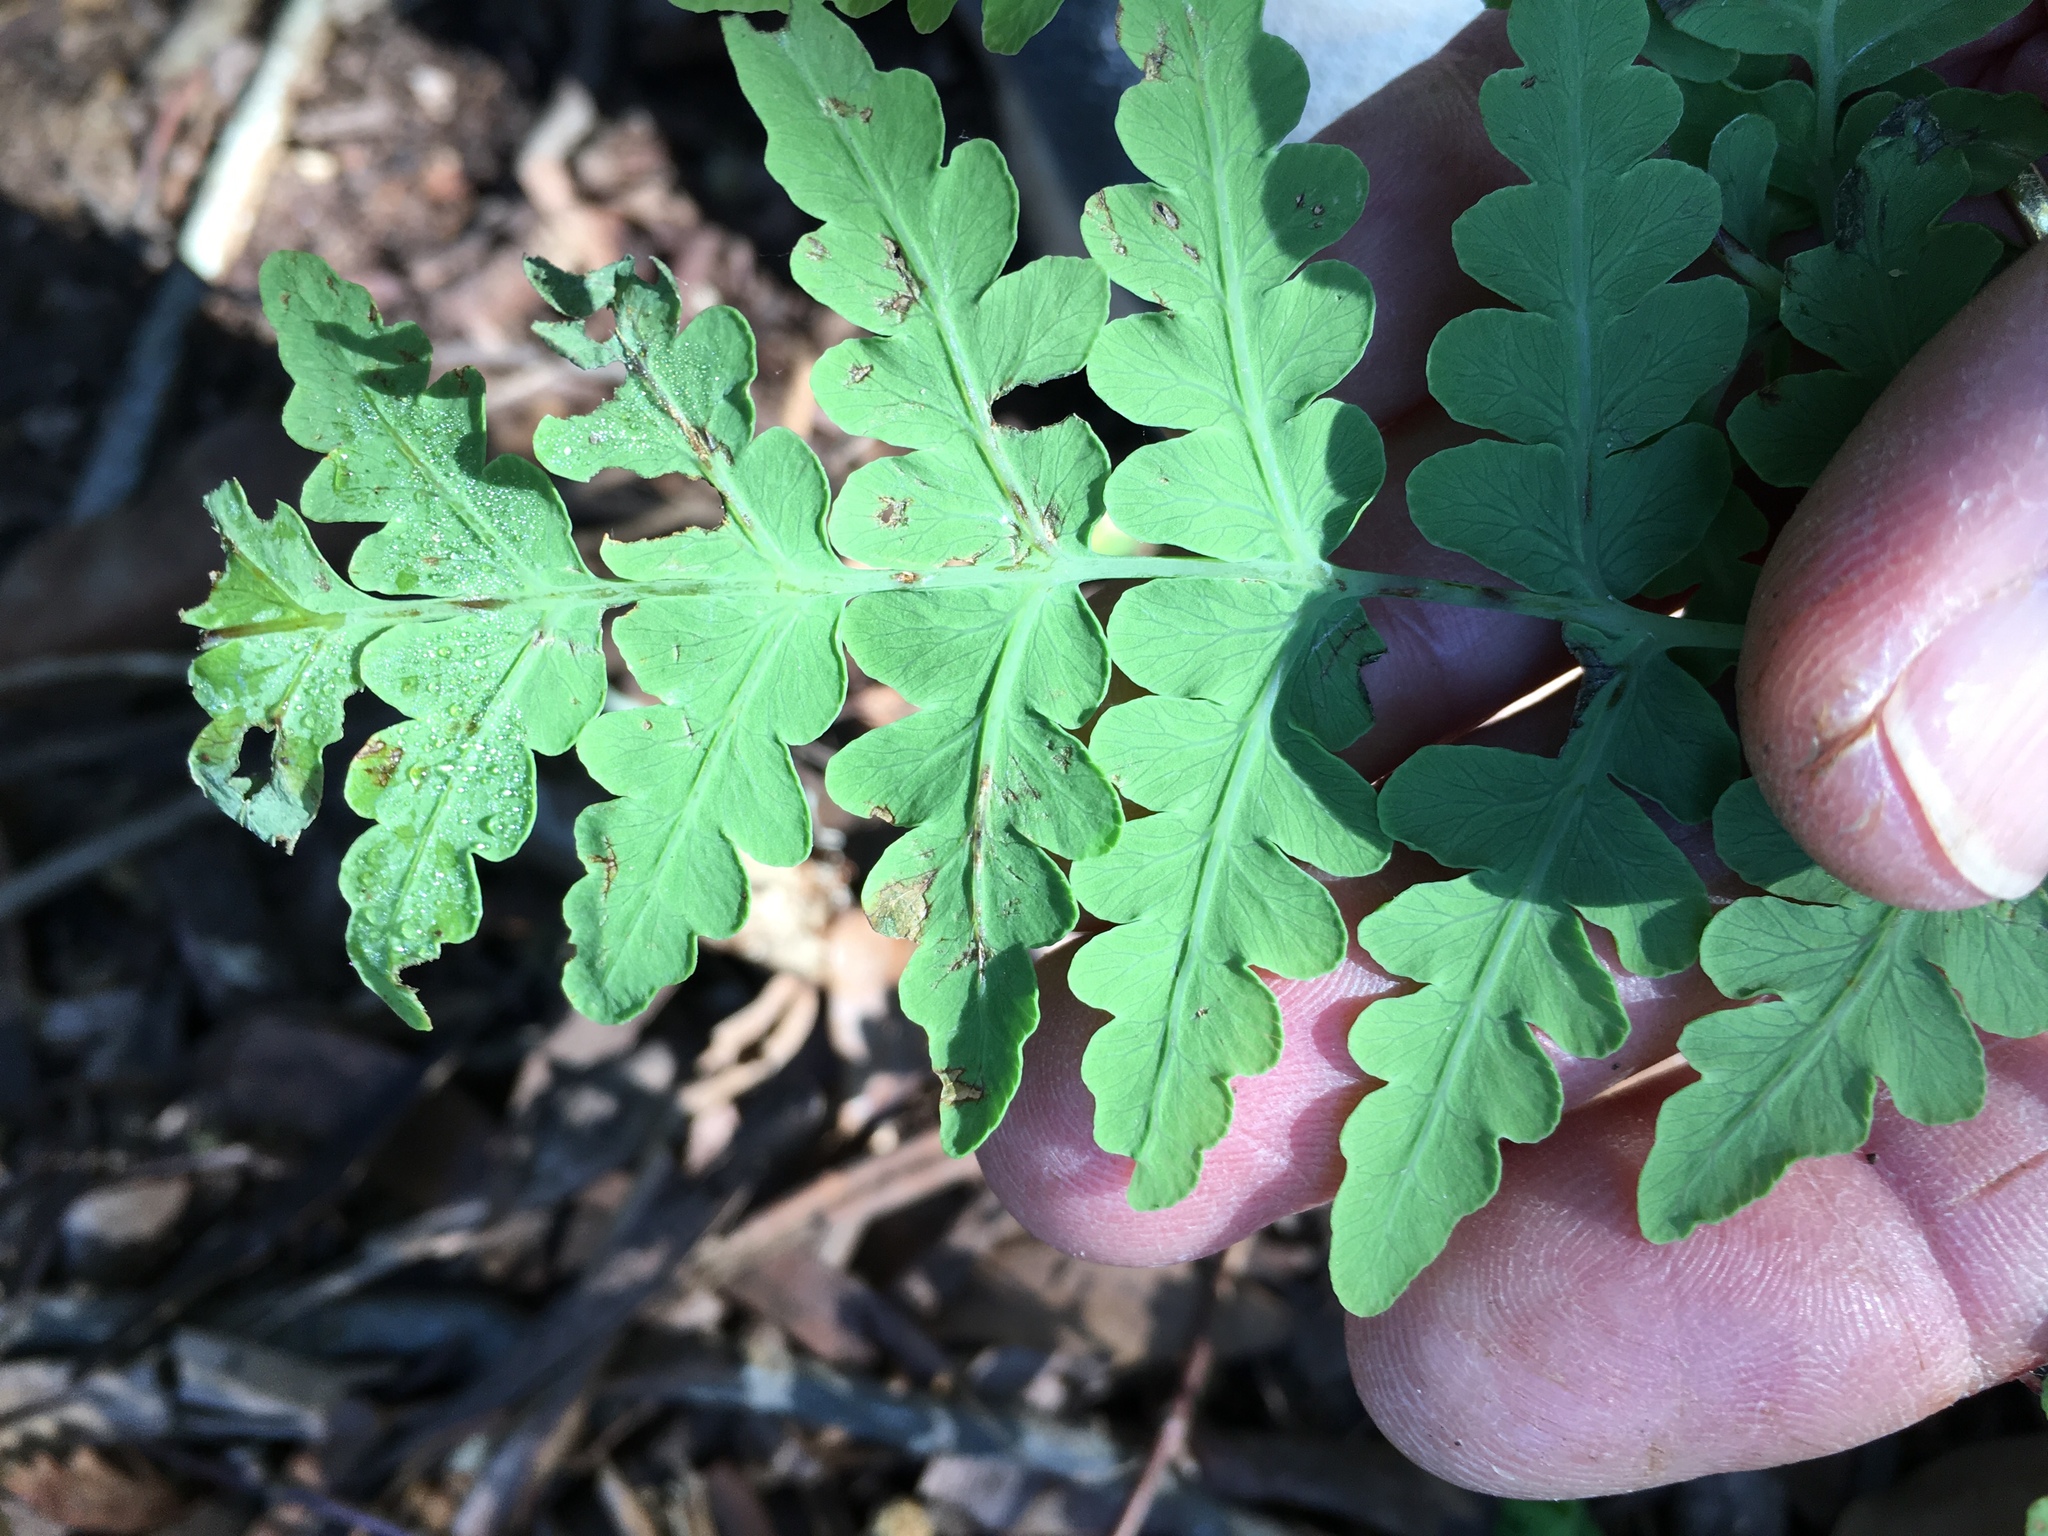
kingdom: Plantae
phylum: Tracheophyta
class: Polypodiopsida
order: Polypodiales
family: Dennstaedtiaceae
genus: Histiopteris
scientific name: Histiopteris incisa
